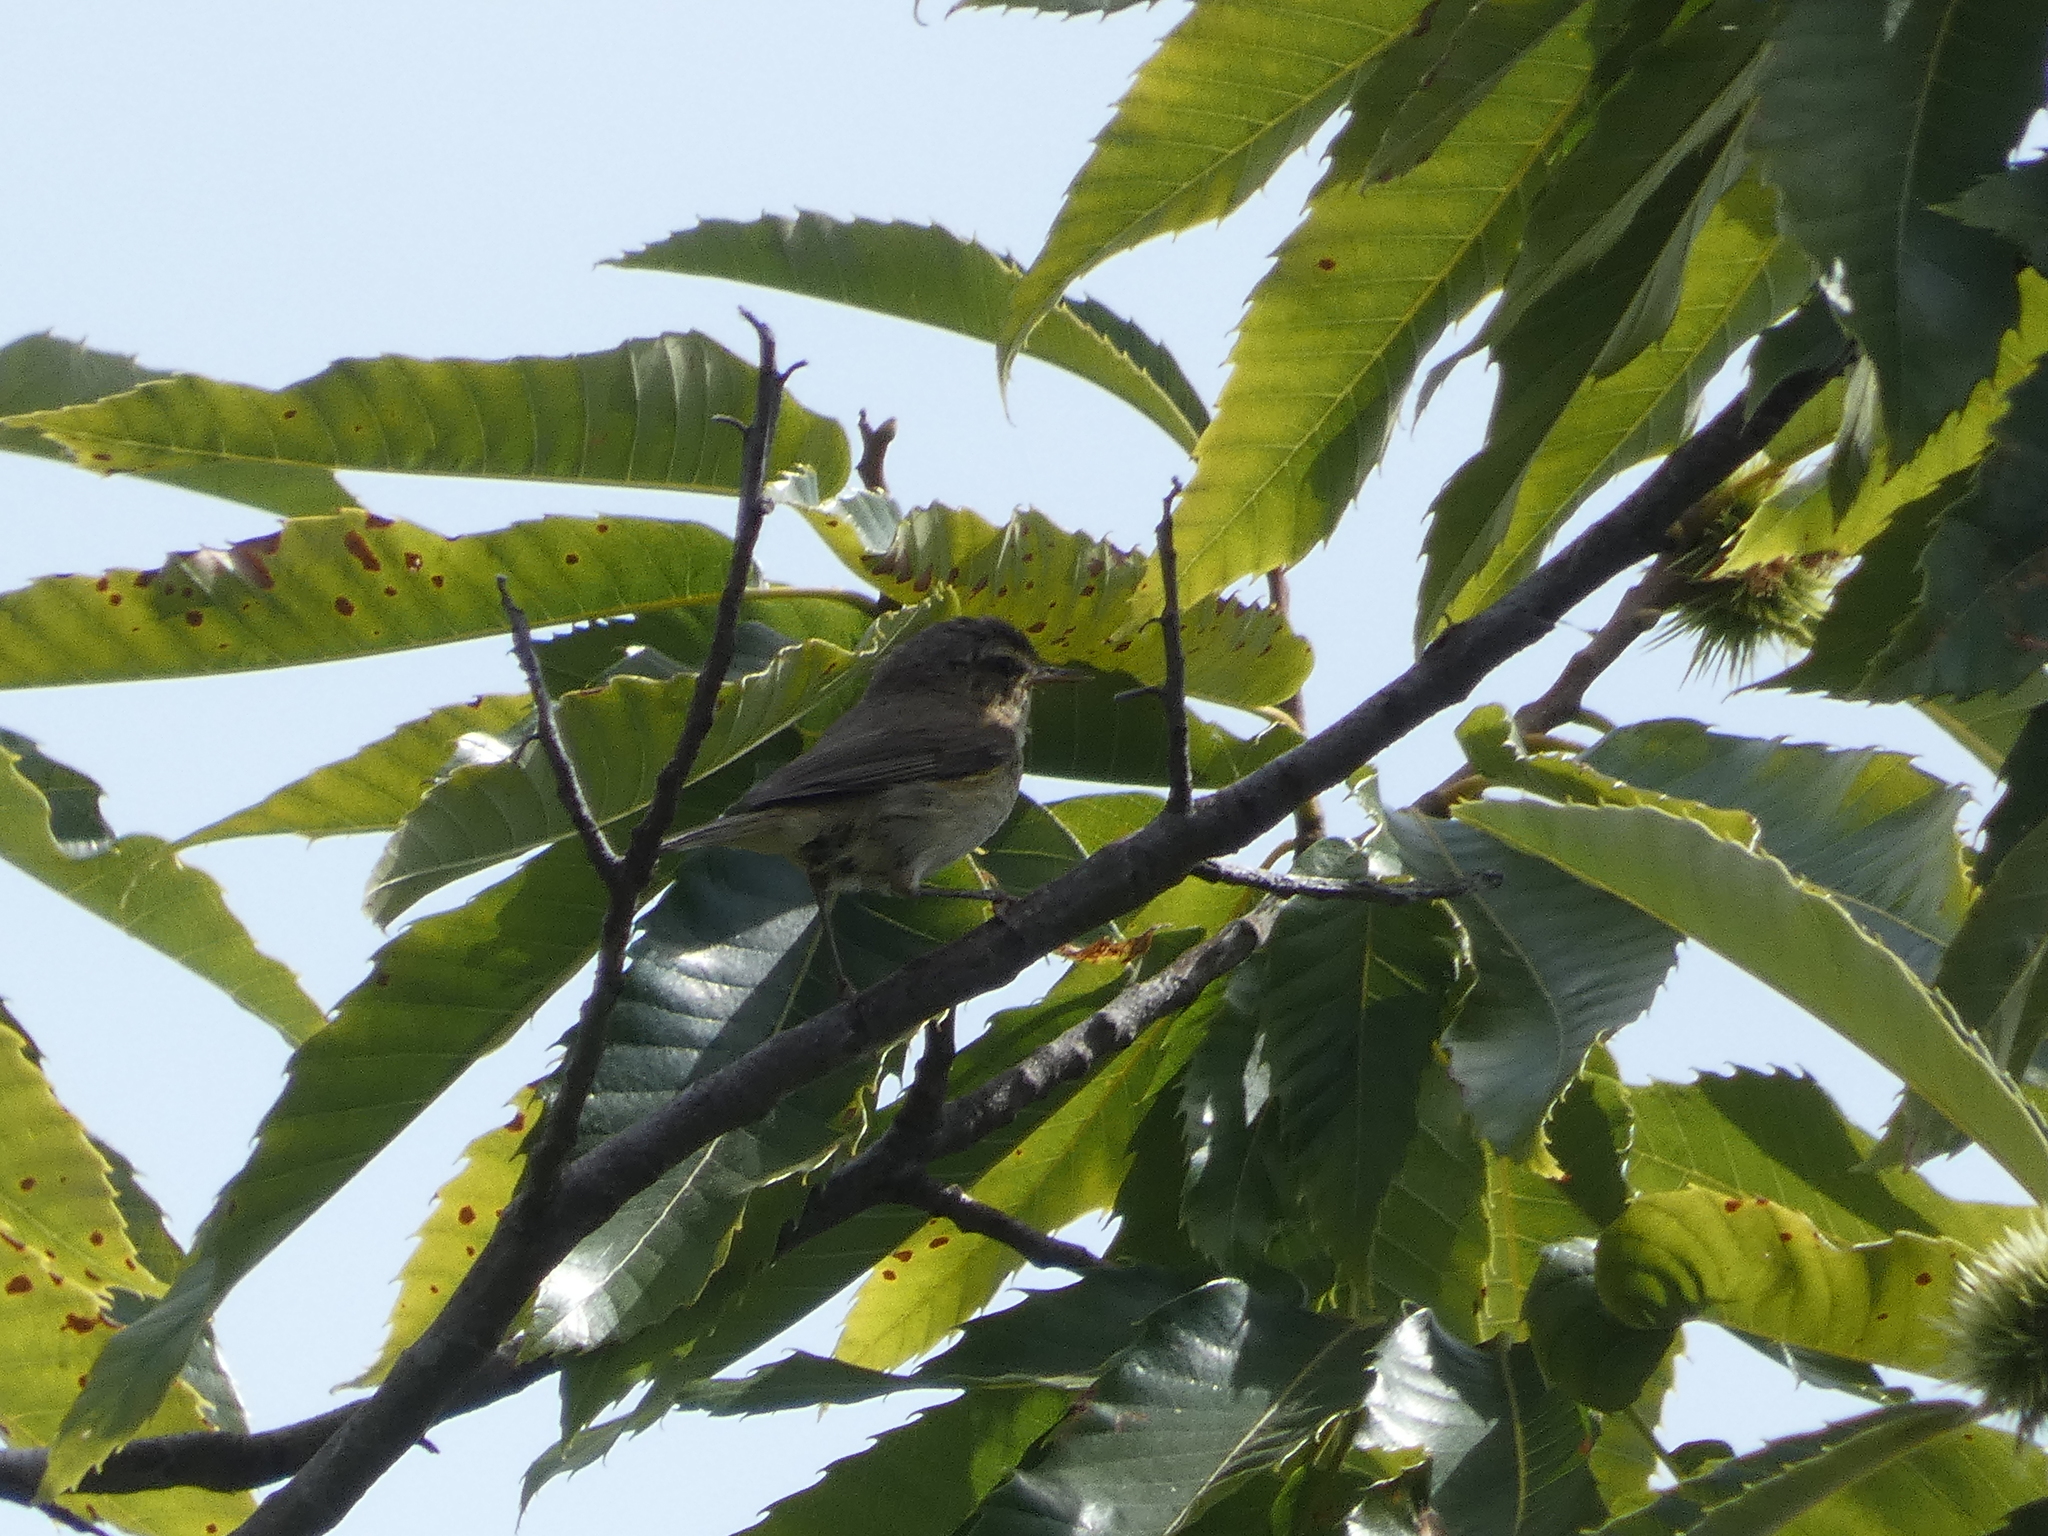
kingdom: Animalia
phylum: Chordata
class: Aves
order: Passeriformes
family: Phylloscopidae
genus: Phylloscopus
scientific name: Phylloscopus collybita
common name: Common chiffchaff
